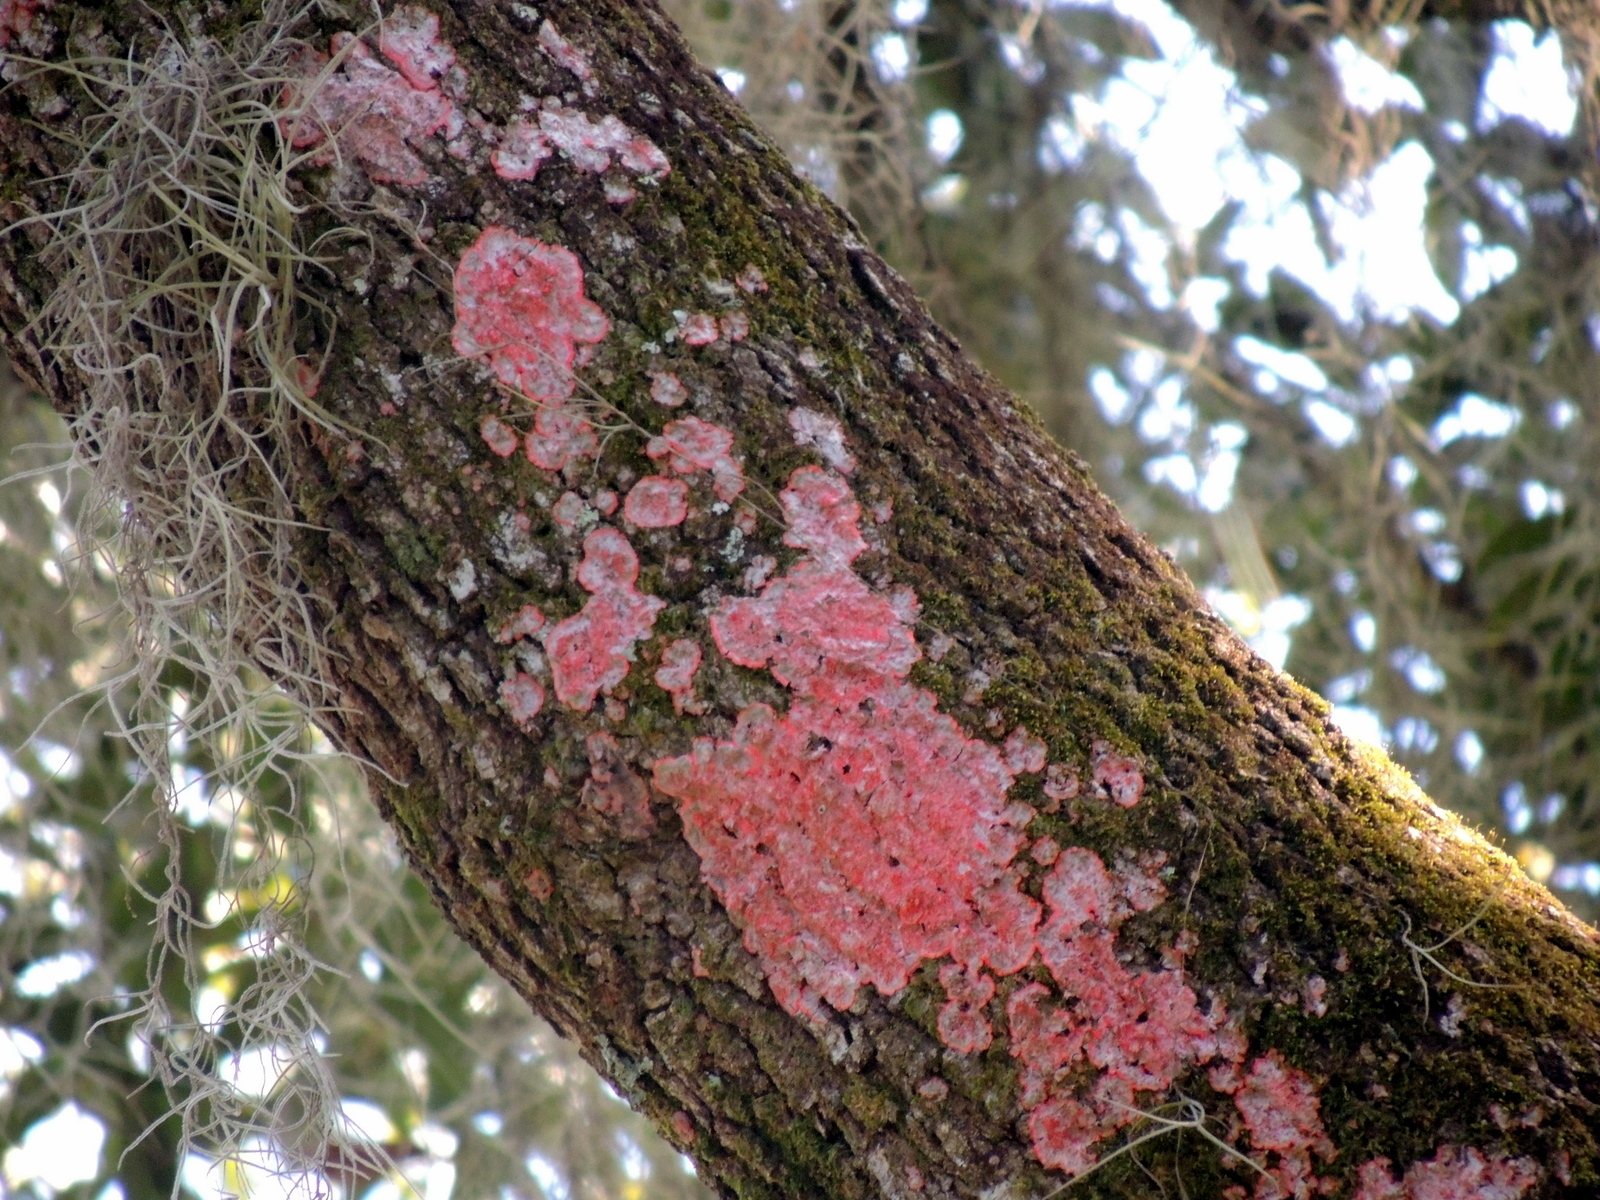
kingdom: Fungi
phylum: Ascomycota
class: Arthoniomycetes
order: Arthoniales
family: Arthoniaceae
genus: Herpothallon
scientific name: Herpothallon rubrocinctum
